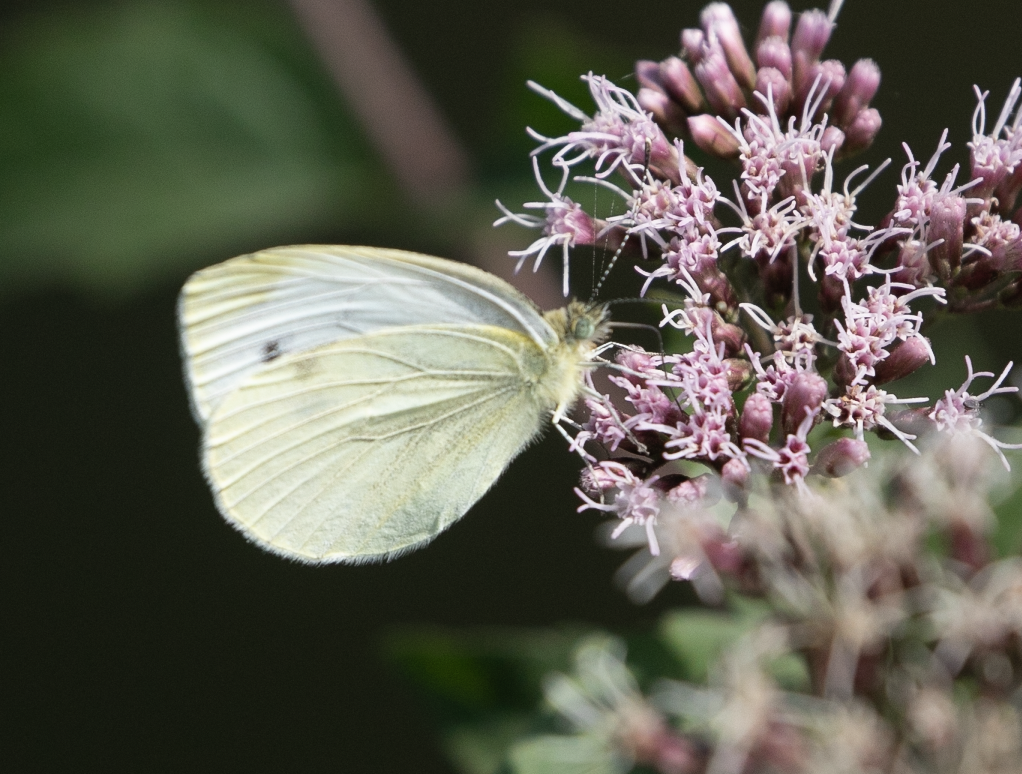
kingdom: Animalia
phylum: Arthropoda
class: Insecta
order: Lepidoptera
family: Pieridae
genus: Pieris
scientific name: Pieris napi
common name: Green-veined white
